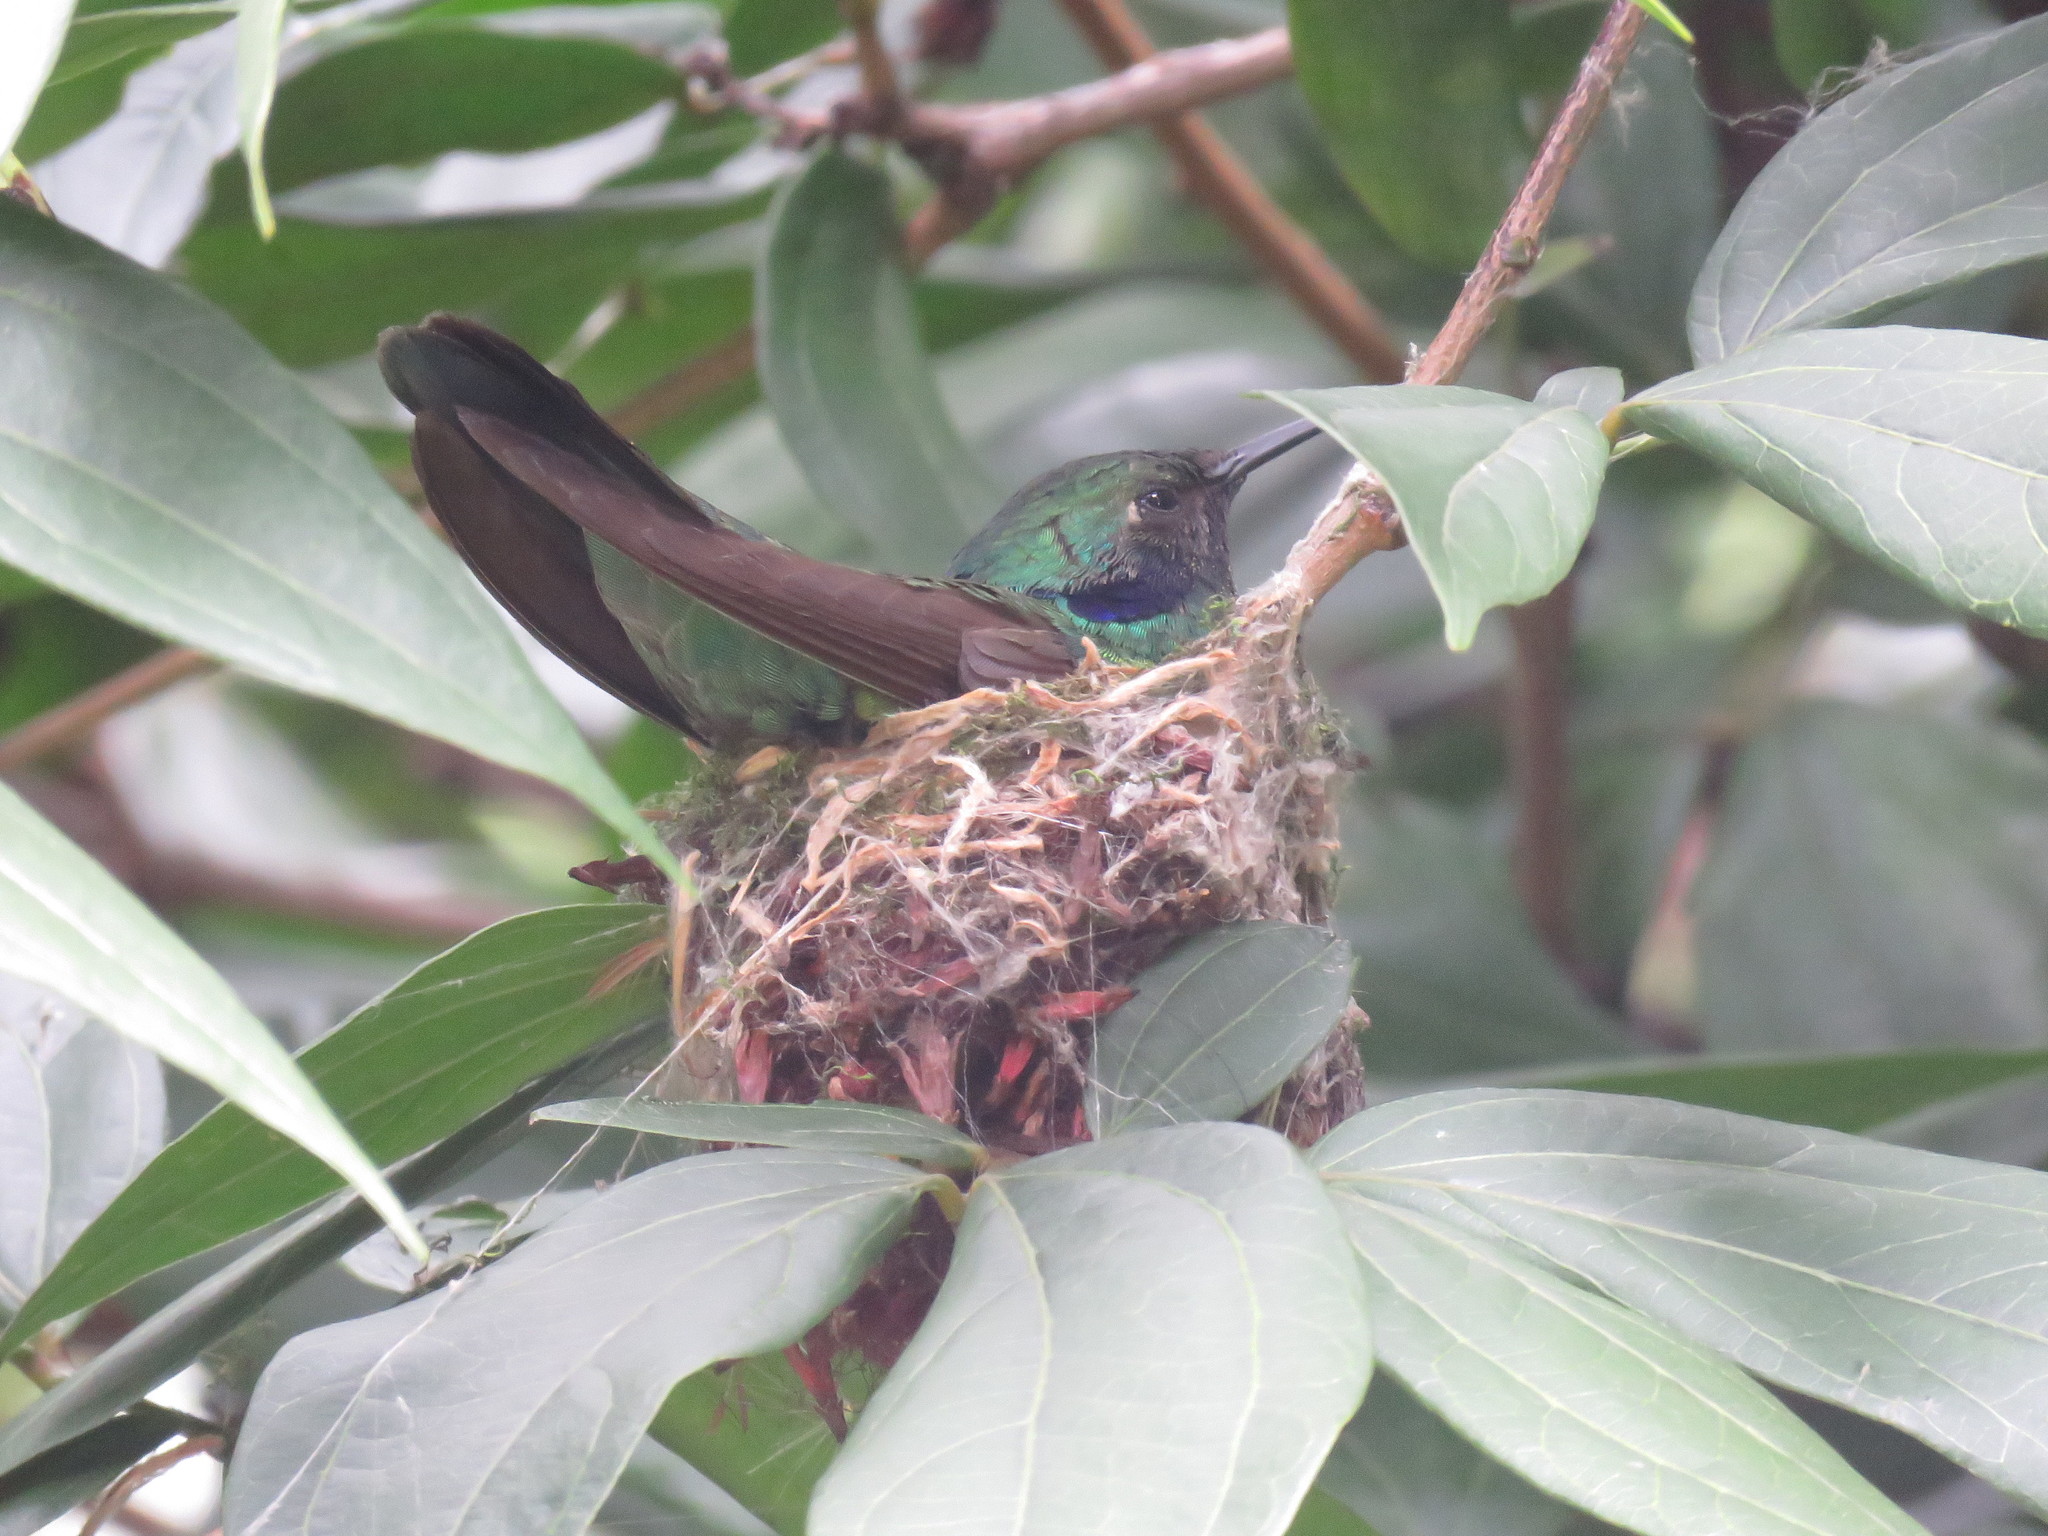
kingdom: Animalia
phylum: Chordata
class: Aves
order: Apodiformes
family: Trochilidae
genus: Colibri
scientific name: Colibri coruscans
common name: Sparkling violetear
